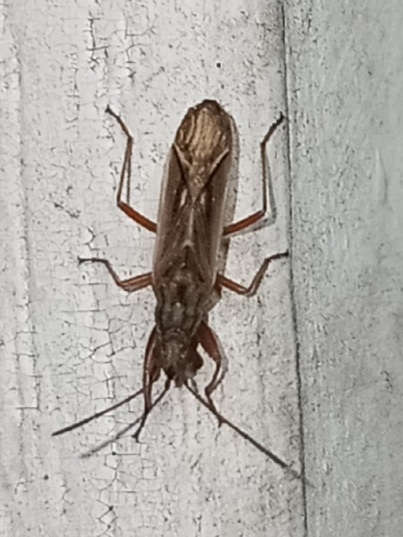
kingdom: Animalia
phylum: Arthropoda
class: Insecta
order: Hemiptera
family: Rhyparochromidae
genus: Paromius
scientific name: Paromius longulus
